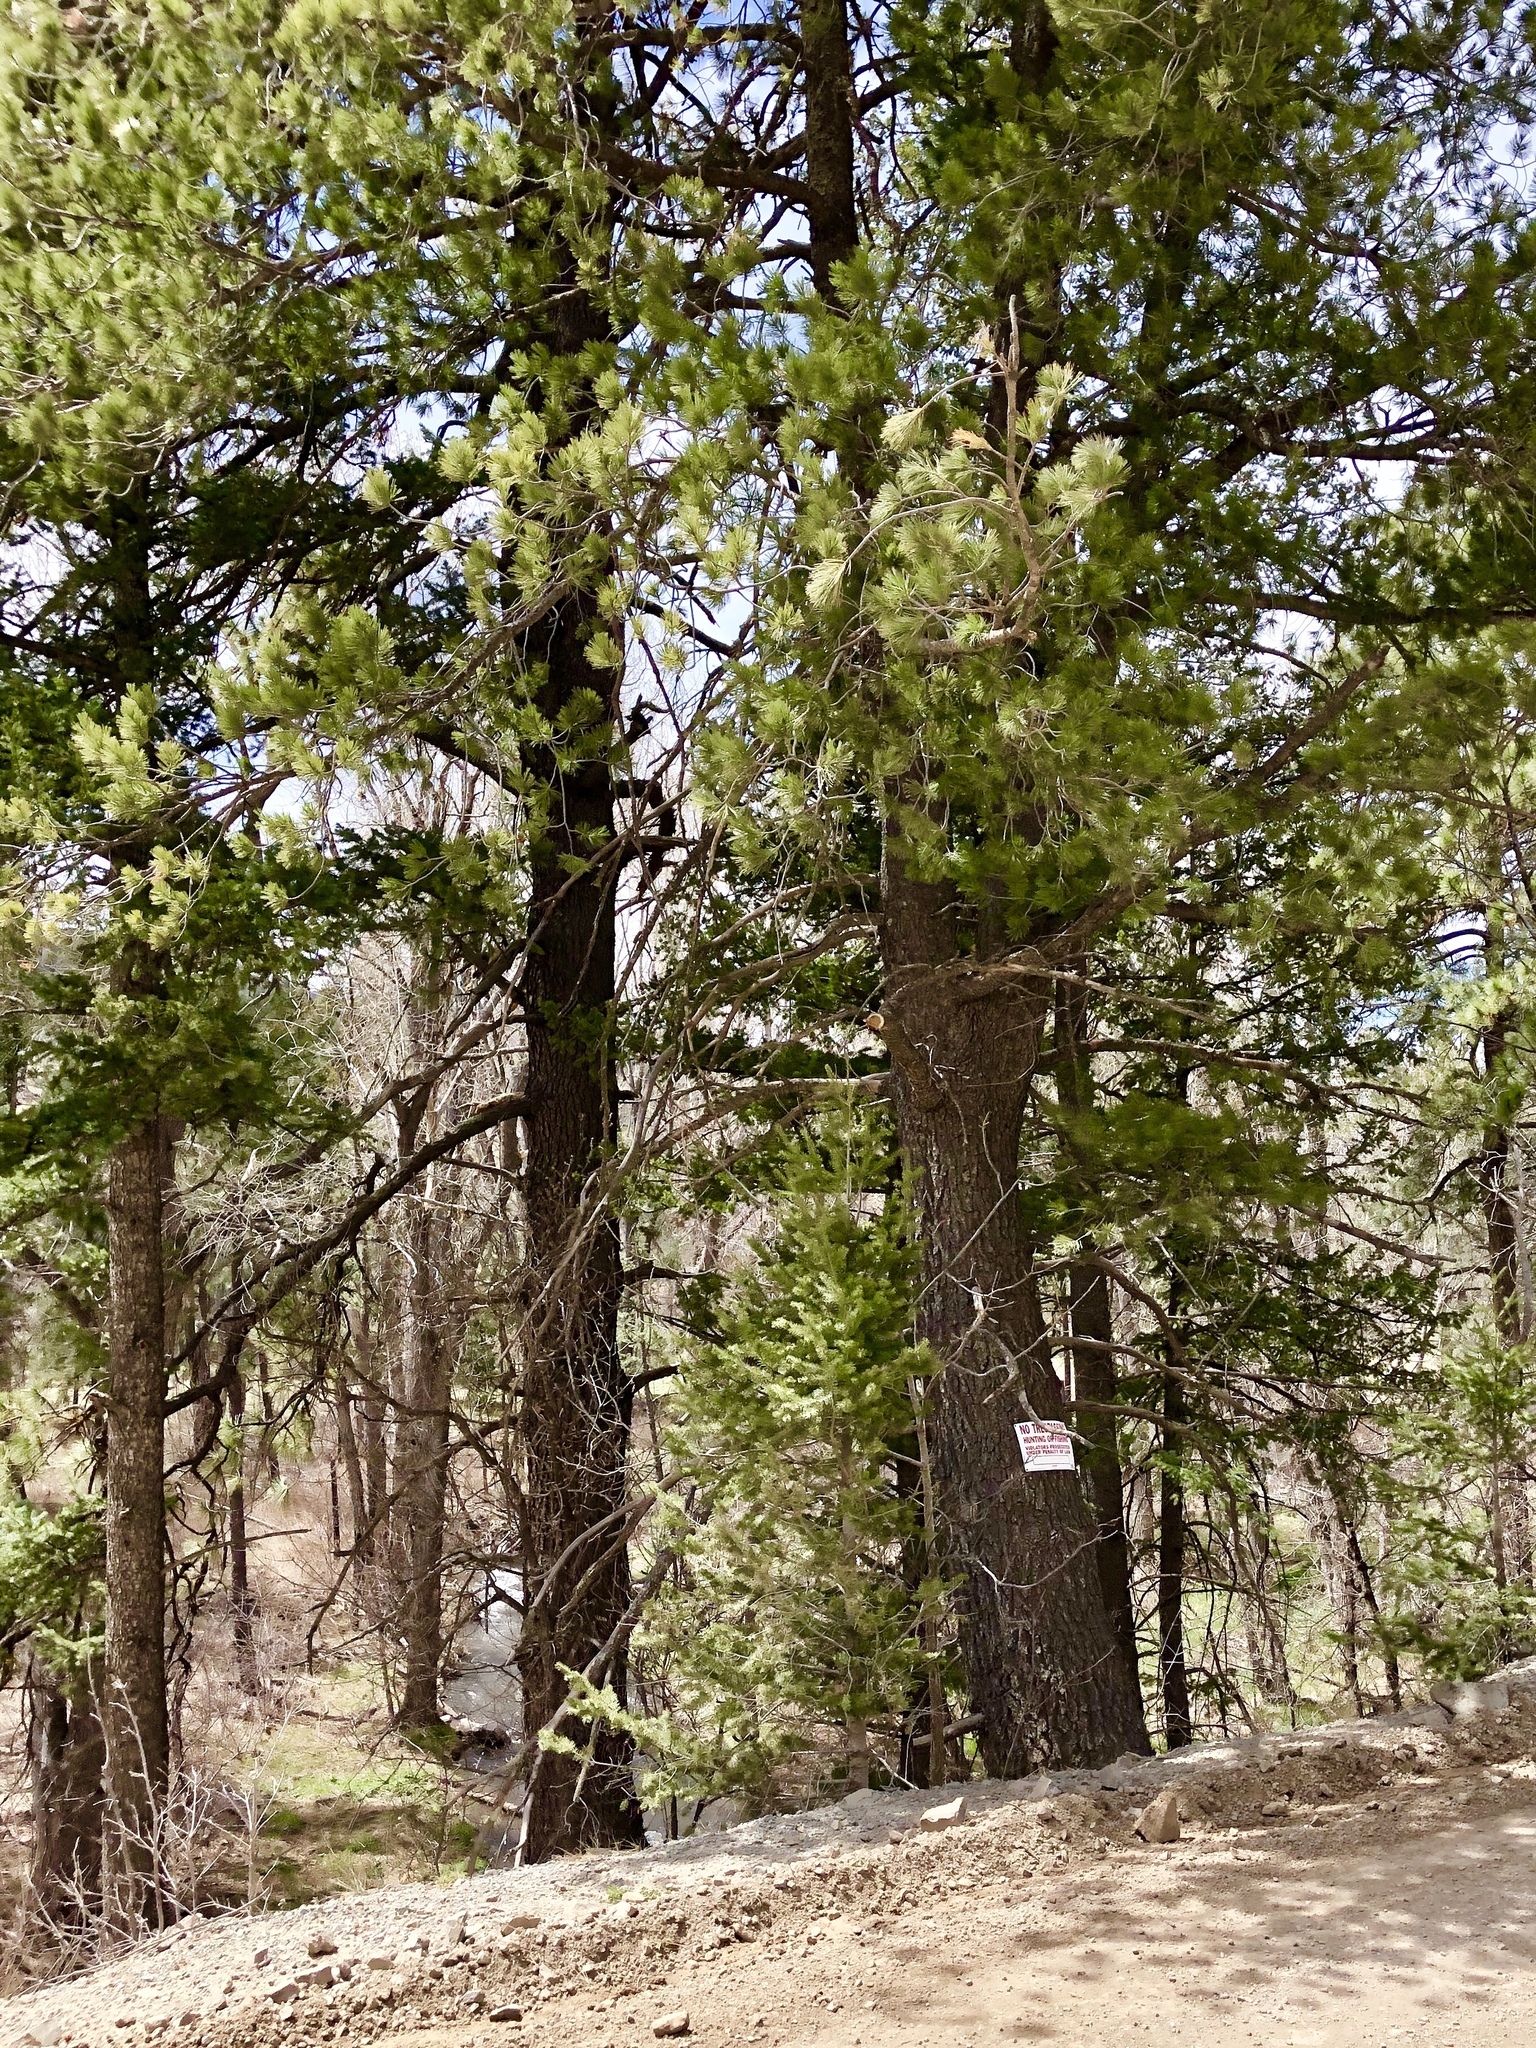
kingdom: Plantae
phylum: Tracheophyta
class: Pinopsida
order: Pinales
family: Pinaceae
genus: Pinus
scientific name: Pinus strobiformis
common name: Southwestern white pine
